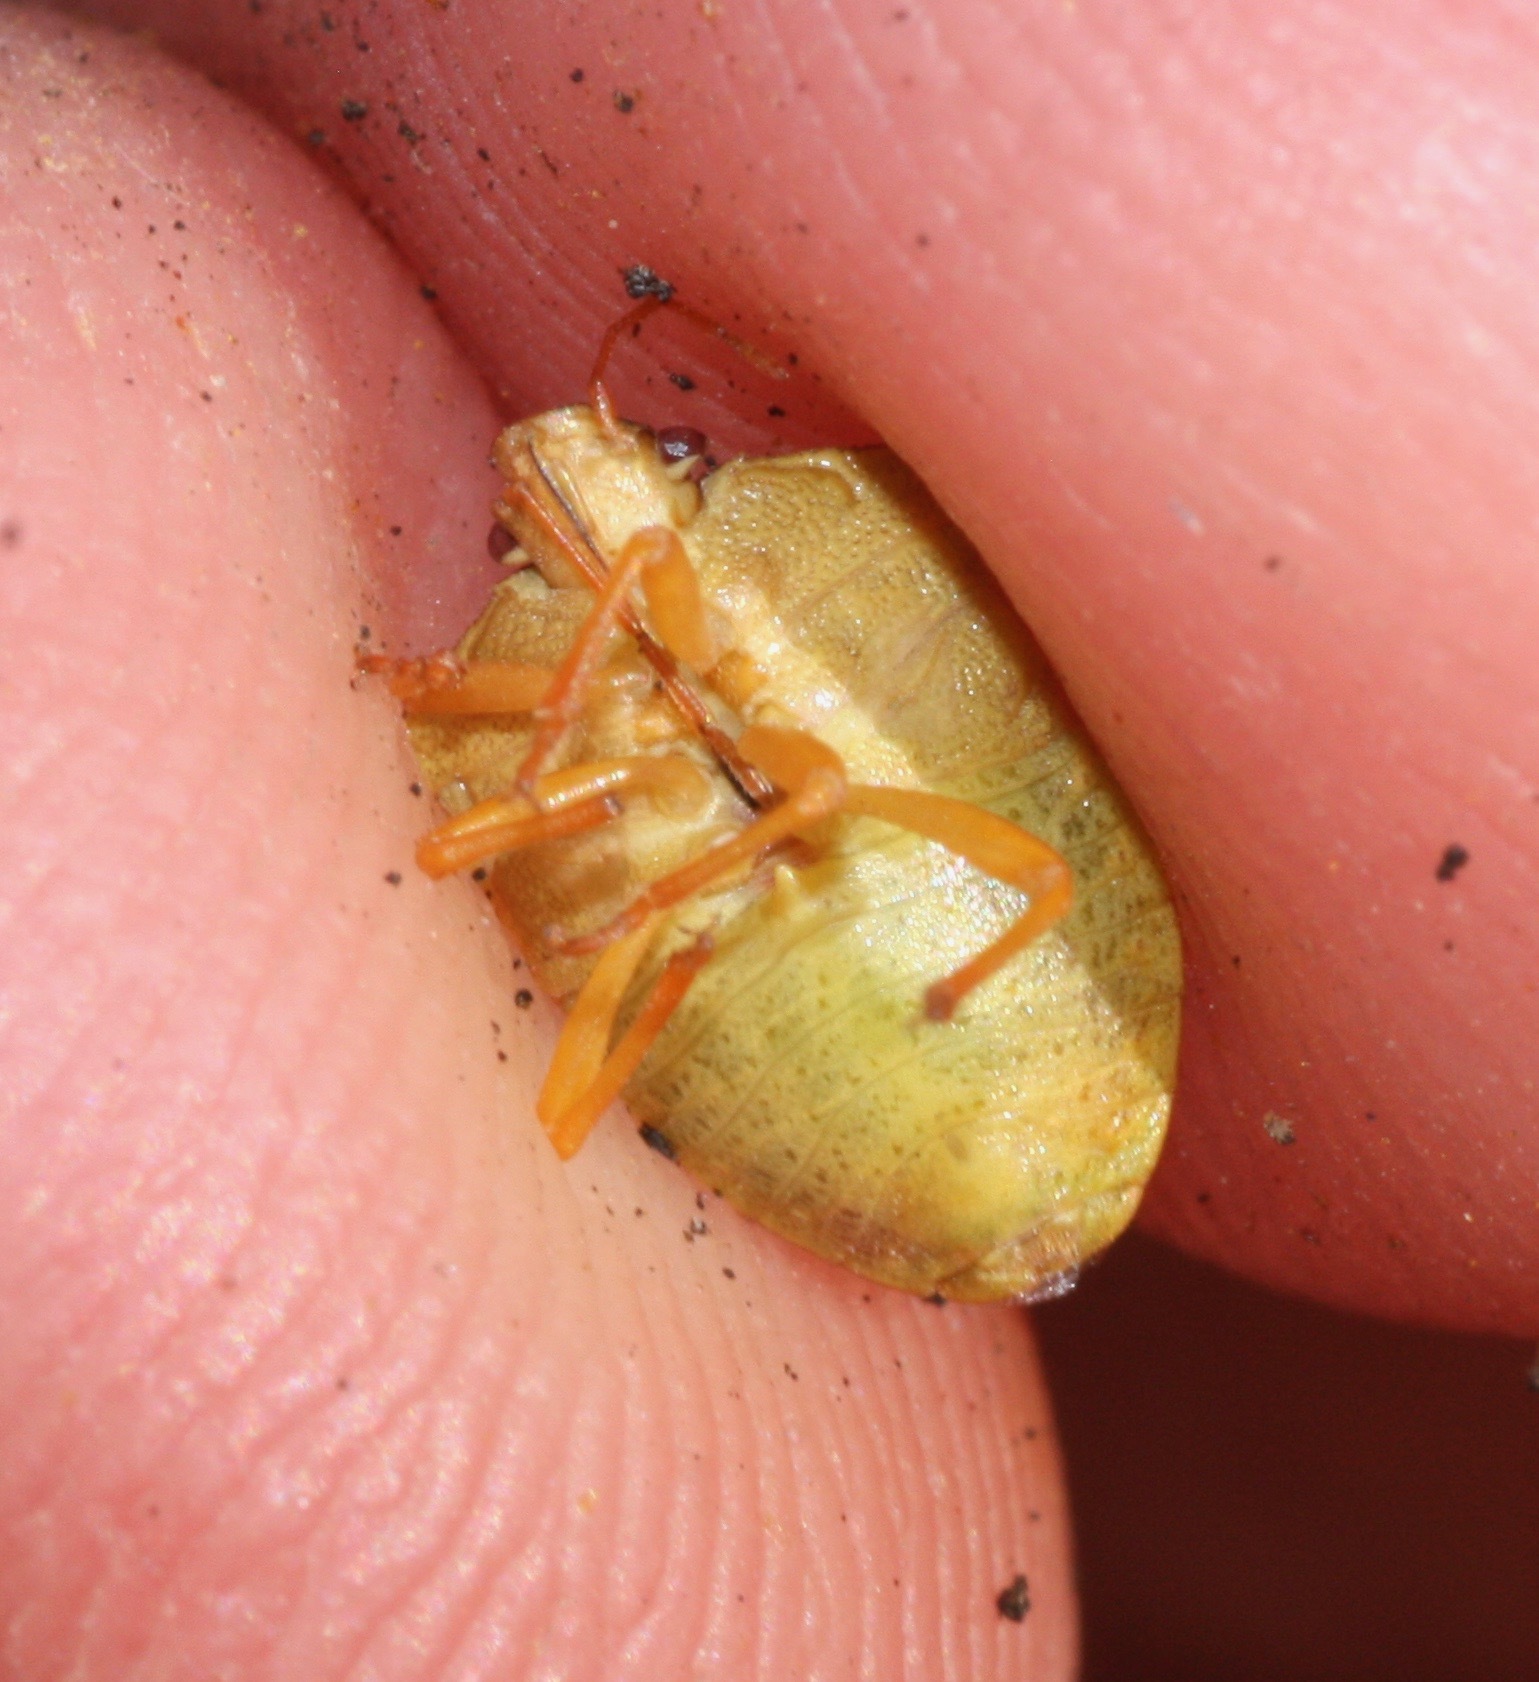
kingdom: Animalia
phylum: Arthropoda
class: Insecta
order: Hemiptera
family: Pentatomidae
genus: Dendrocoris
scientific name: Dendrocoris contaminatus
